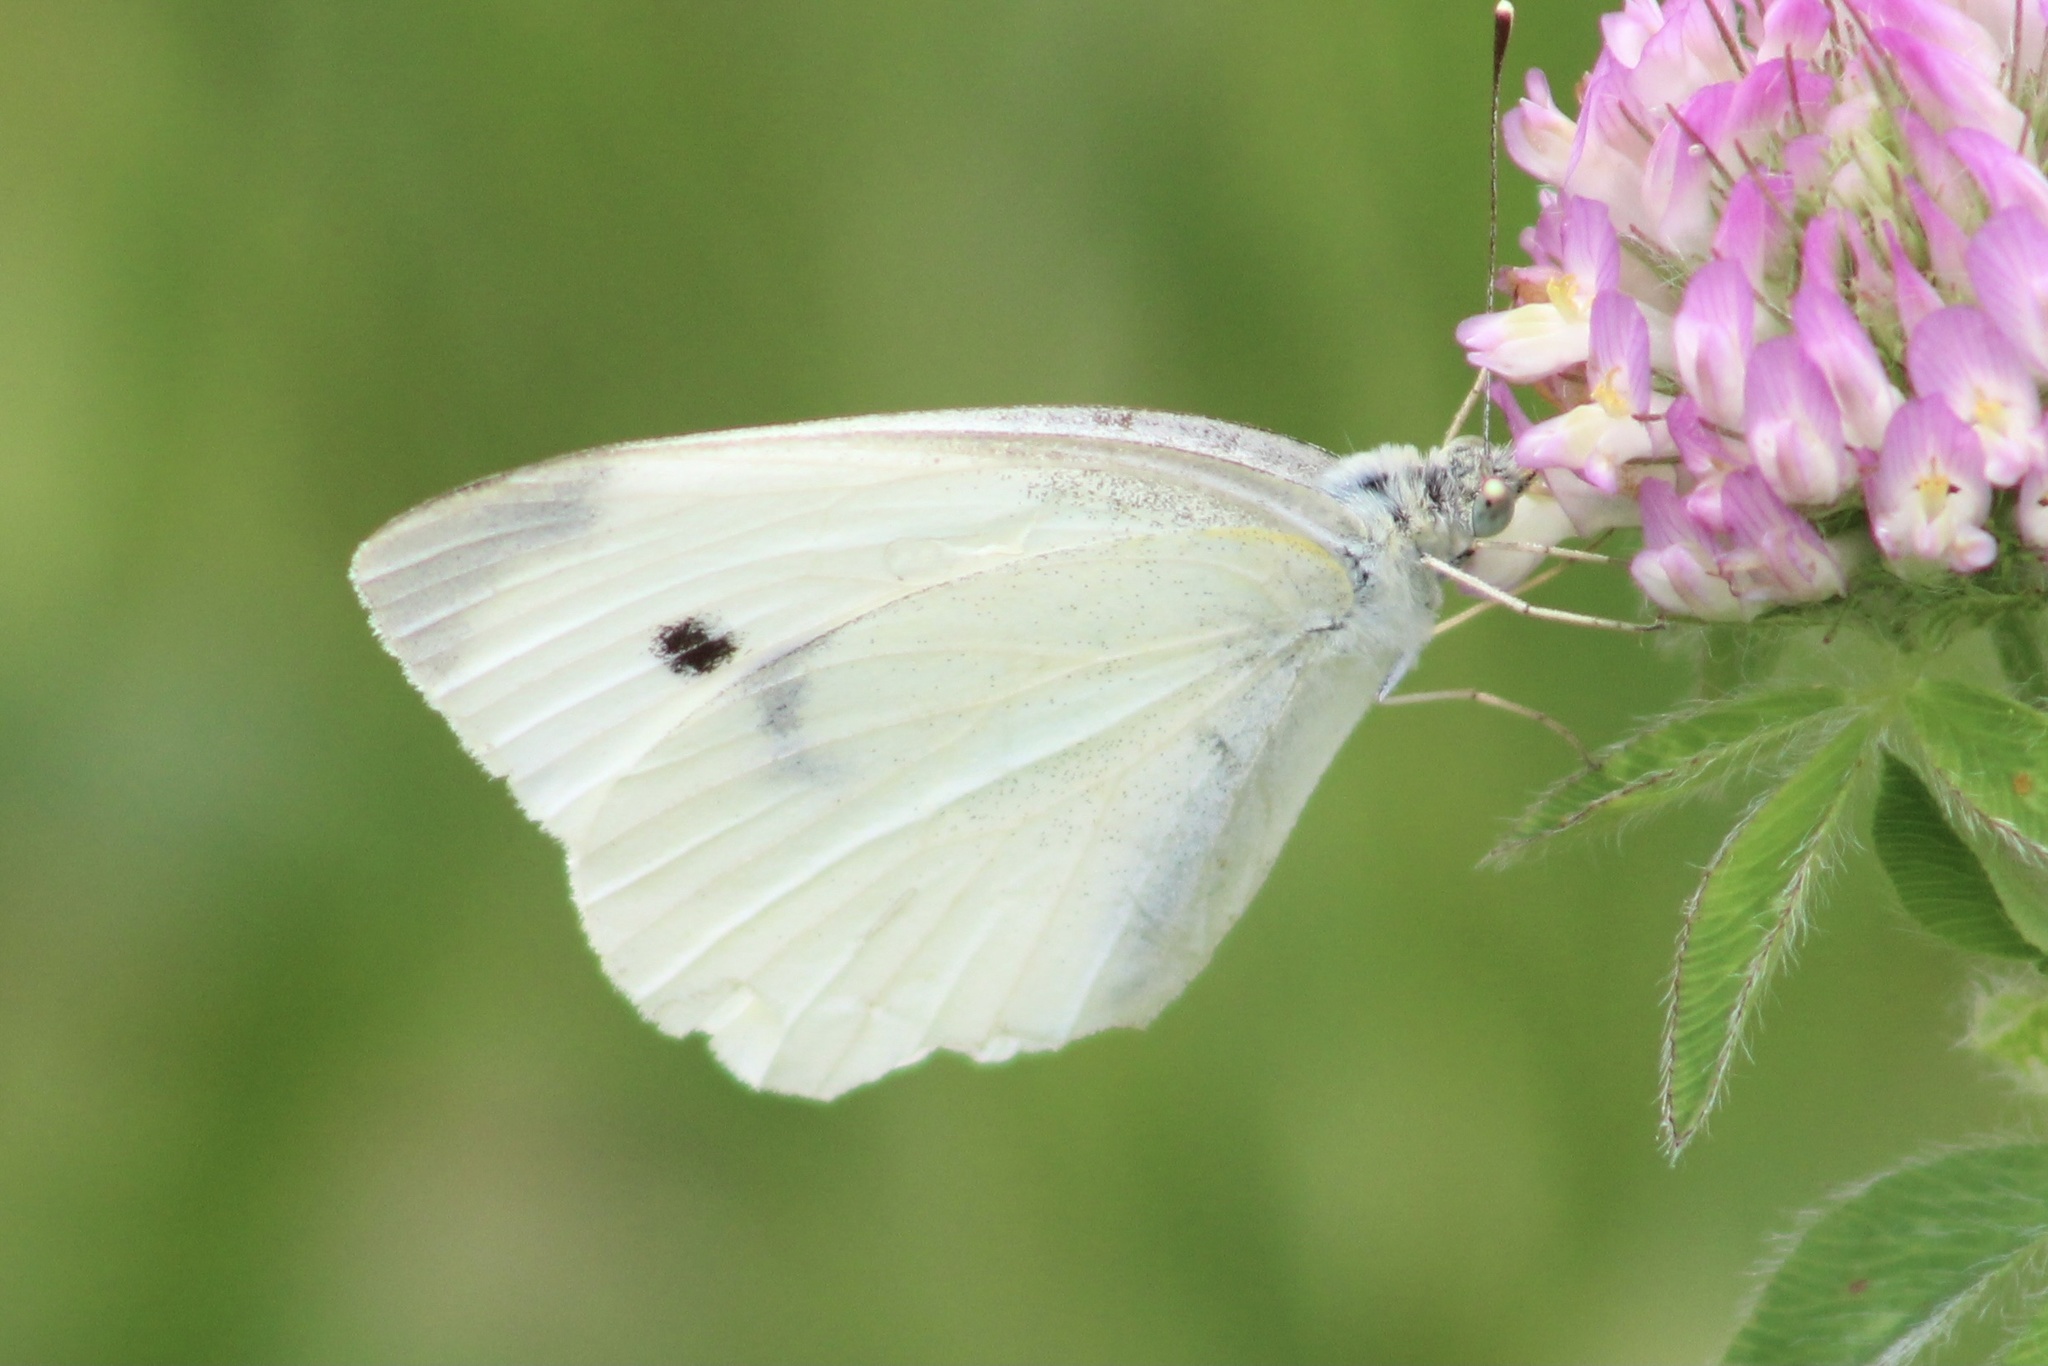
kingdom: Animalia
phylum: Arthropoda
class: Insecta
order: Lepidoptera
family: Pieridae
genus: Pieris
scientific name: Pieris rapae
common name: Small white
